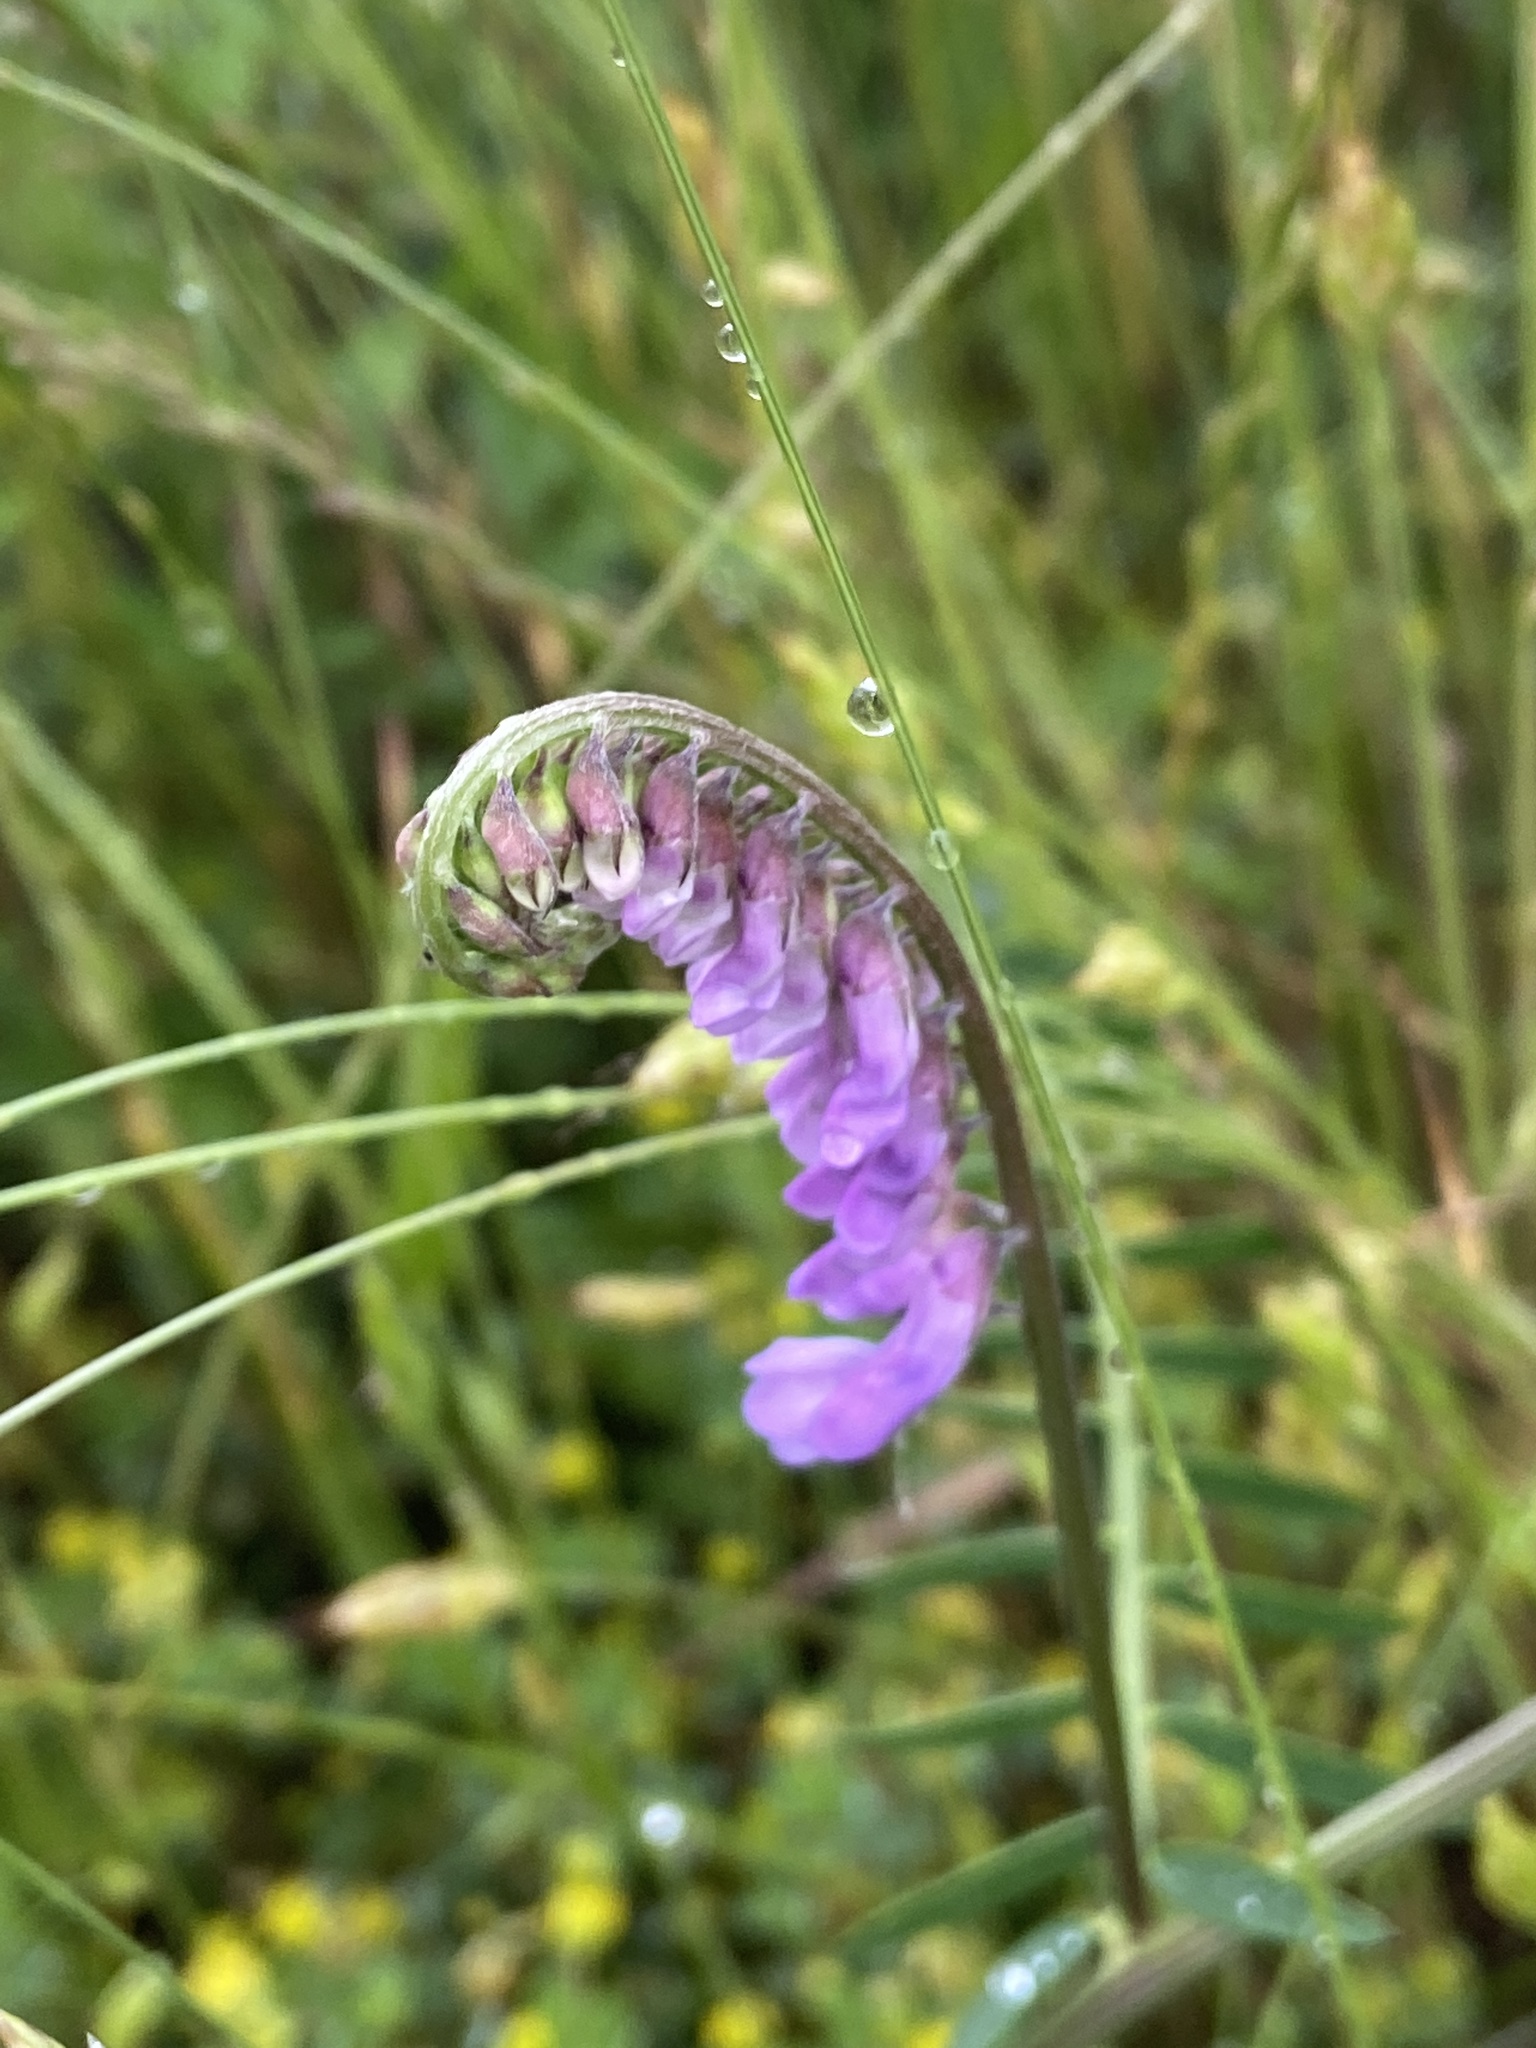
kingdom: Plantae
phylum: Tracheophyta
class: Magnoliopsida
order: Fabales
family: Fabaceae
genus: Vicia
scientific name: Vicia villosa
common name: Fodder vetch
